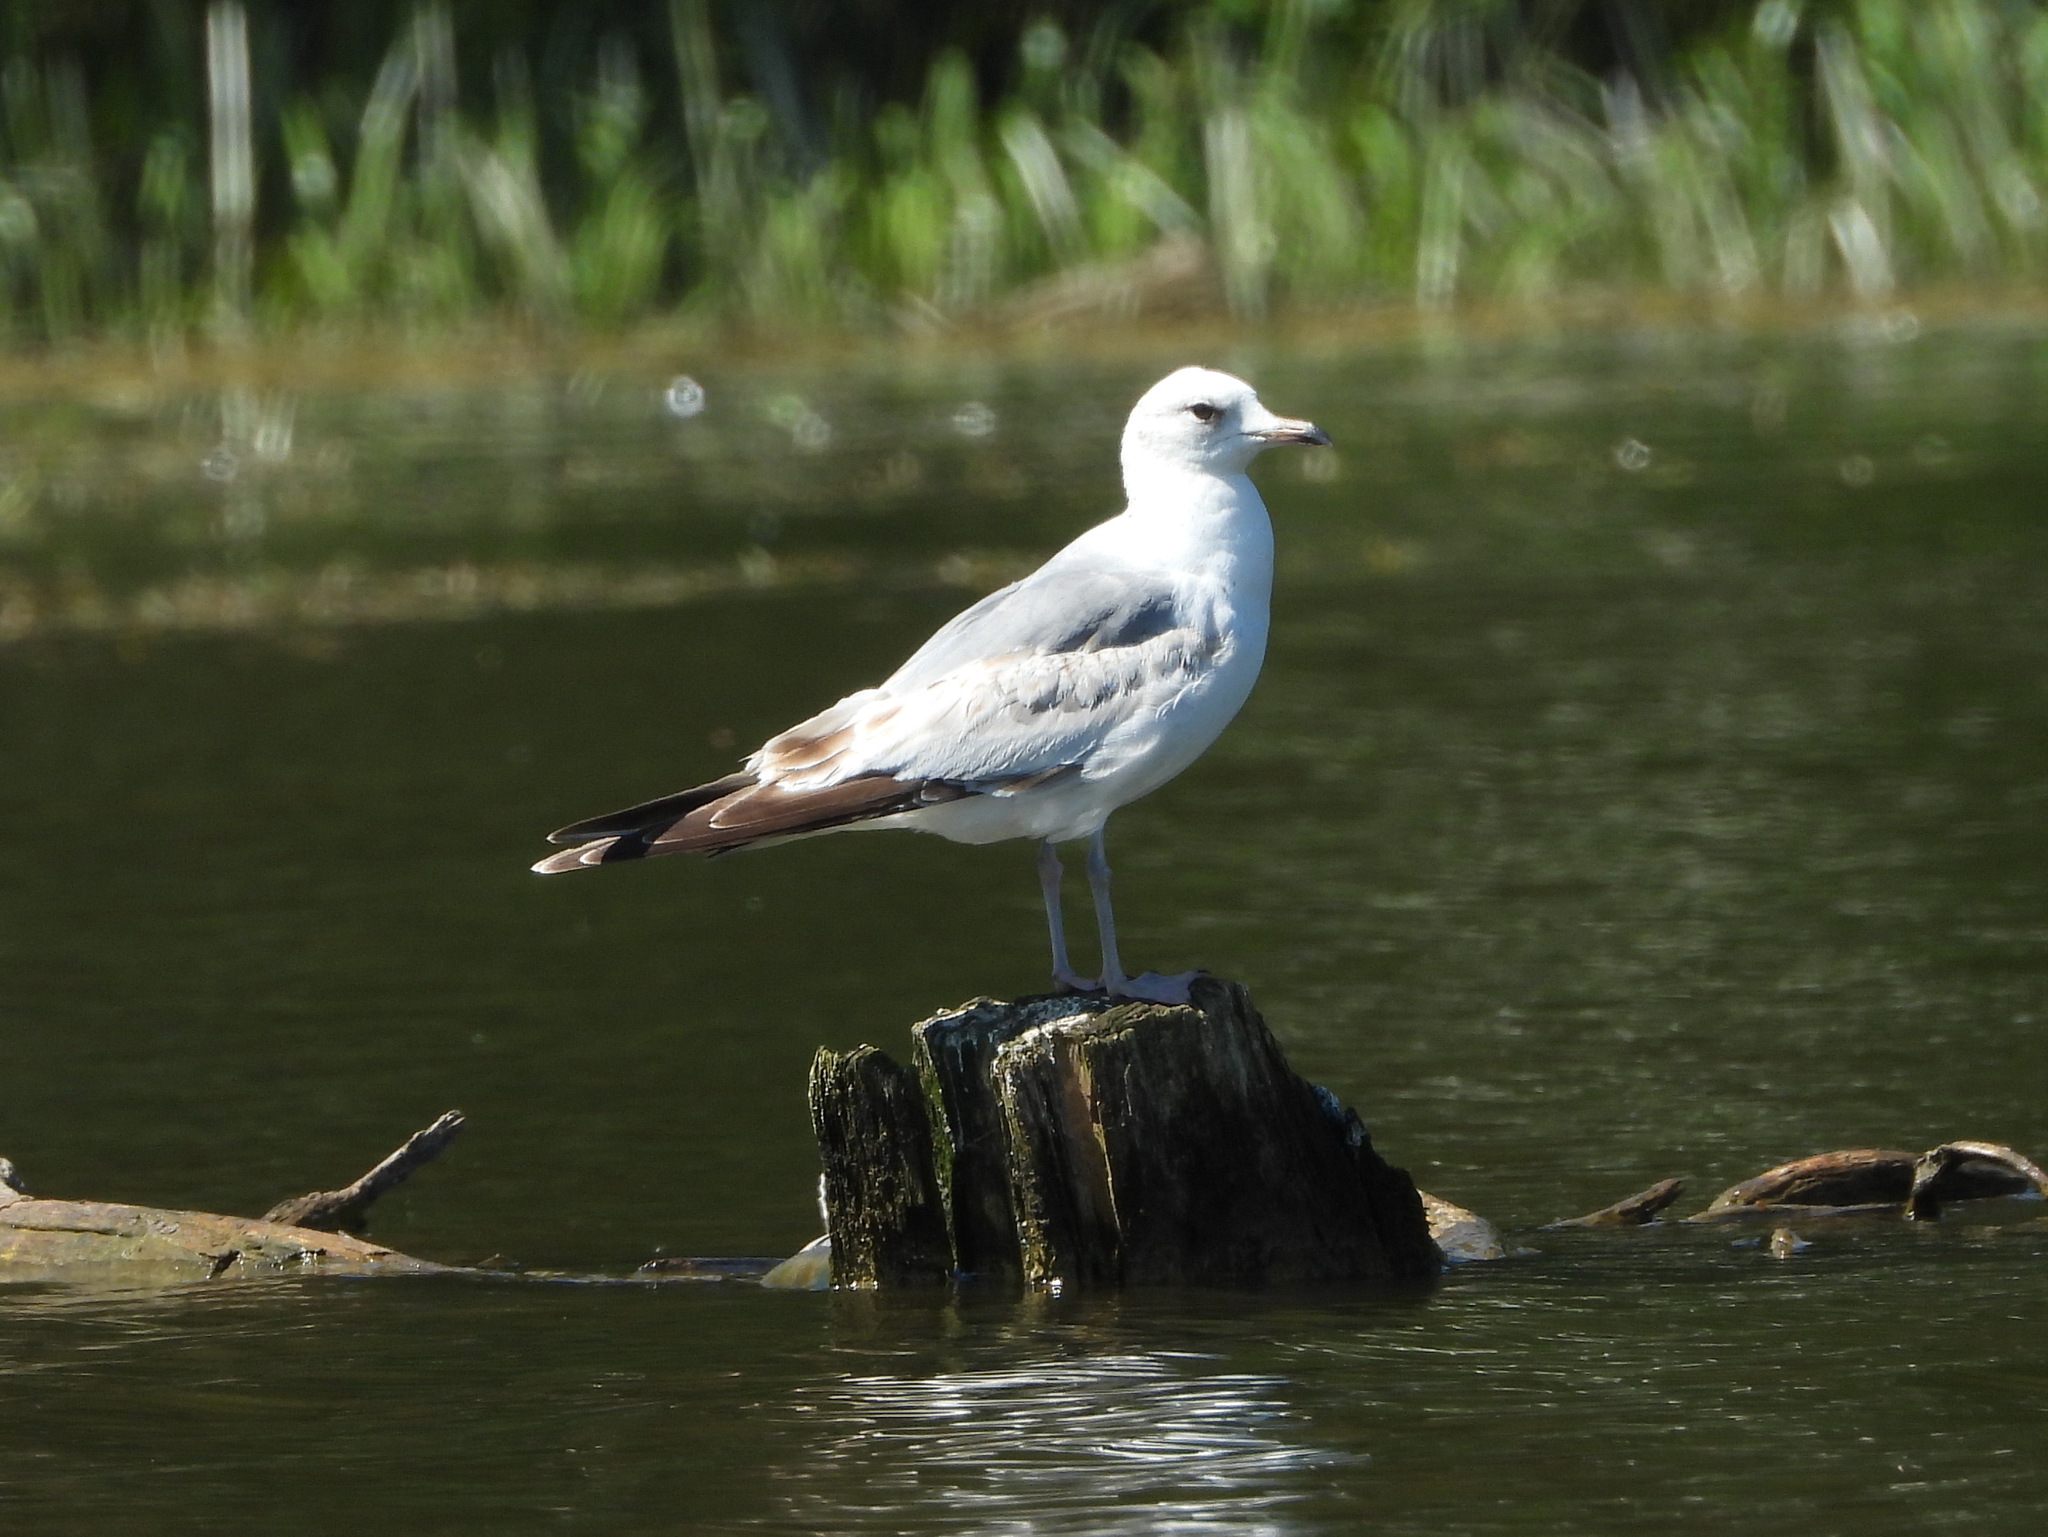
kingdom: Animalia
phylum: Chordata
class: Aves
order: Charadriiformes
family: Laridae
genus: Larus
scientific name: Larus canus
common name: Mew gull
